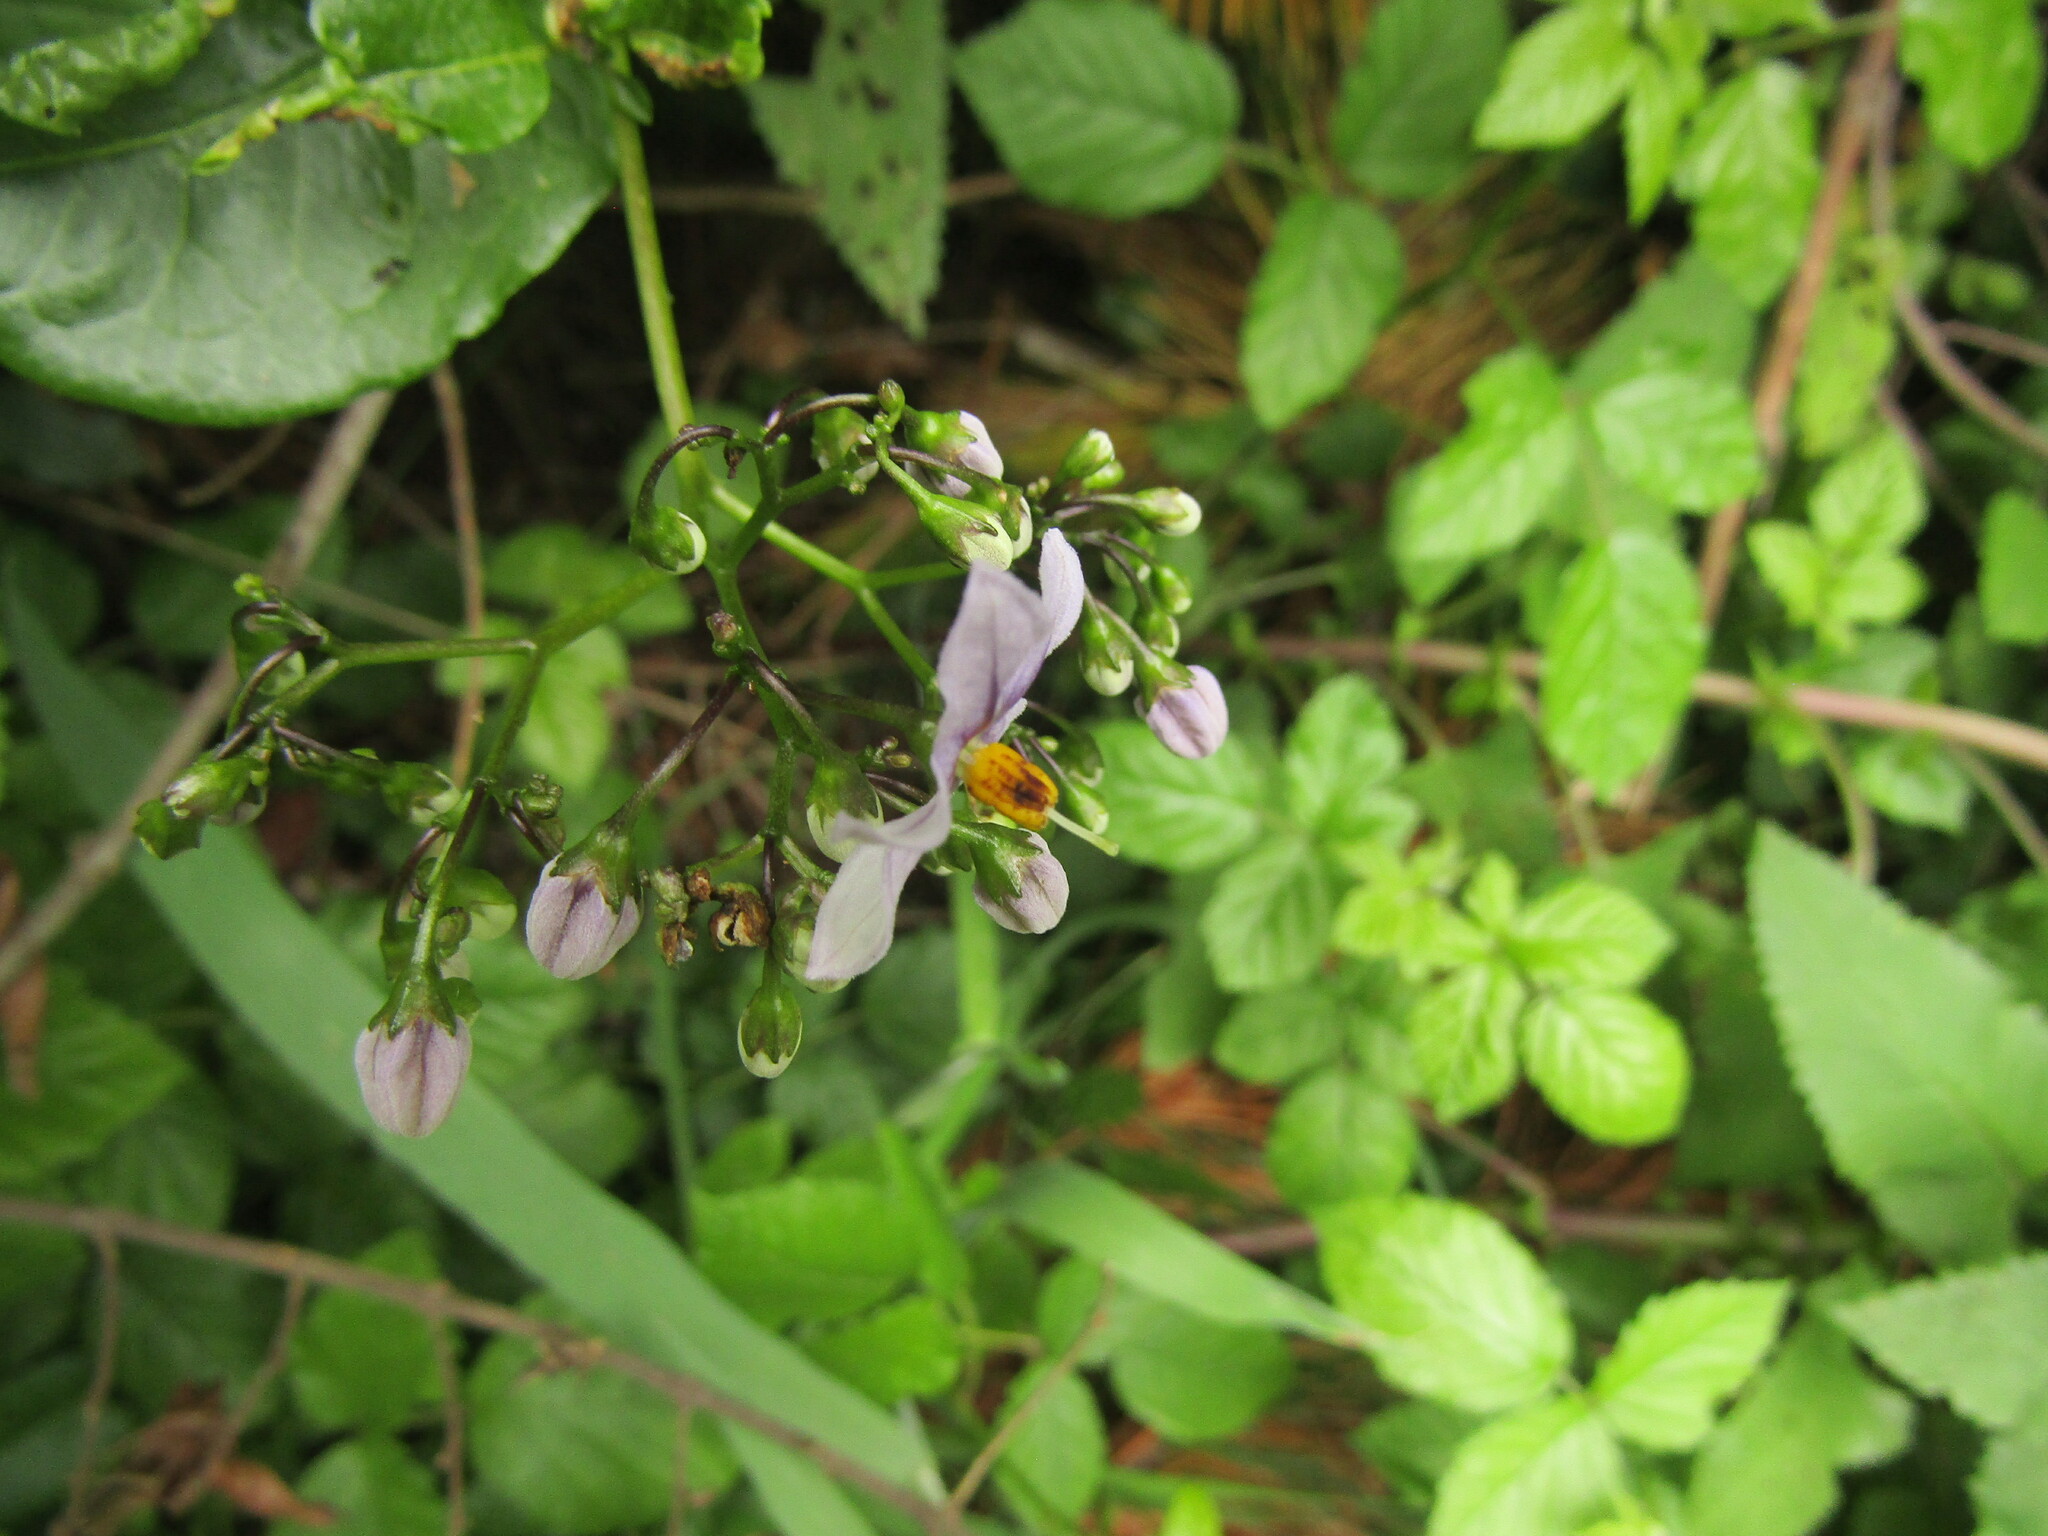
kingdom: Plantae
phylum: Tracheophyta
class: Magnoliopsida
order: Solanales
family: Solanaceae
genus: Solanum
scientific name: Solanum crispum
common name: Chilean nightshade
